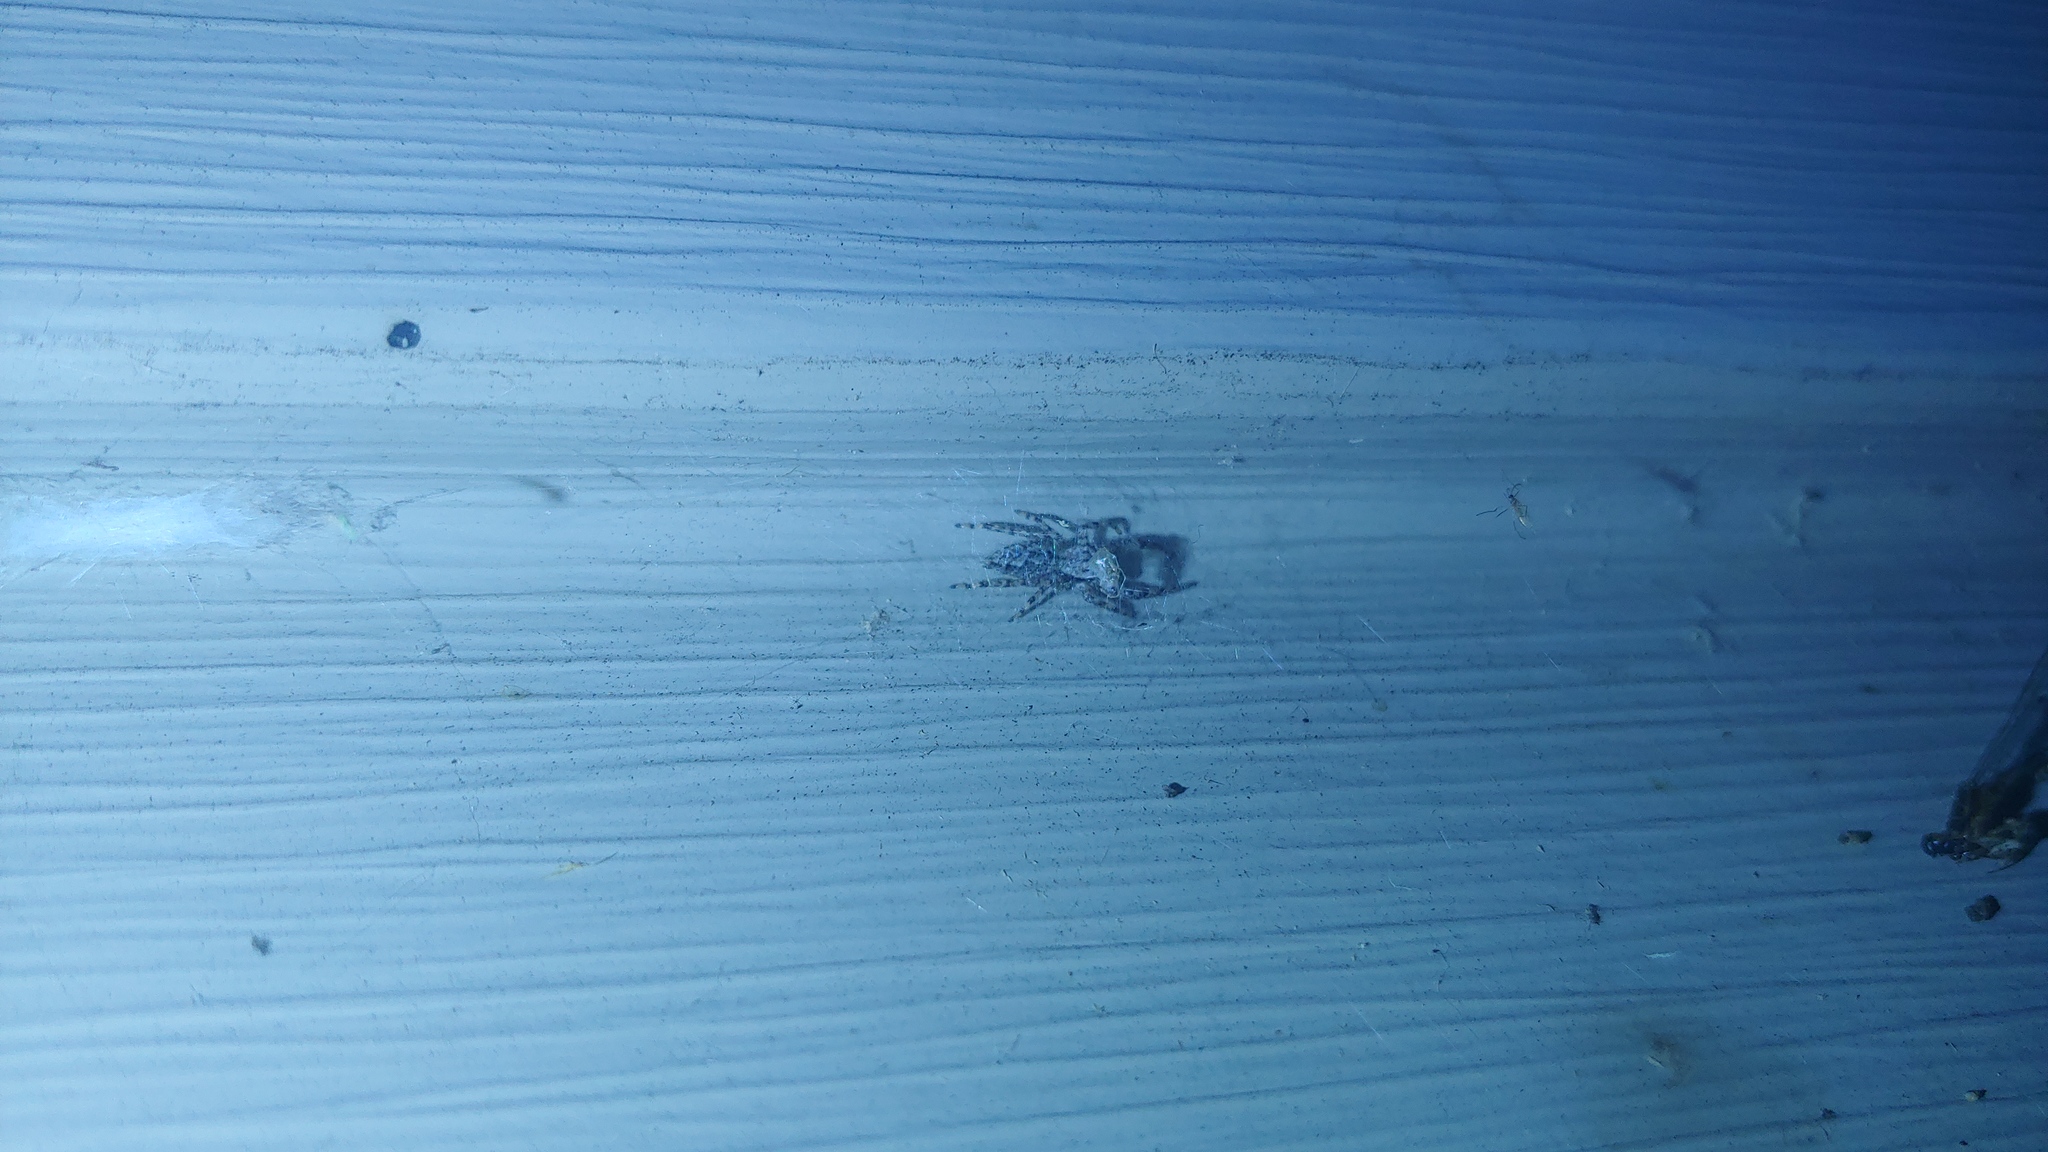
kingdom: Animalia
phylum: Arthropoda
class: Arachnida
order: Araneae
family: Salticidae
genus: Platycryptus
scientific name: Platycryptus undatus
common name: Tan jumping spider
